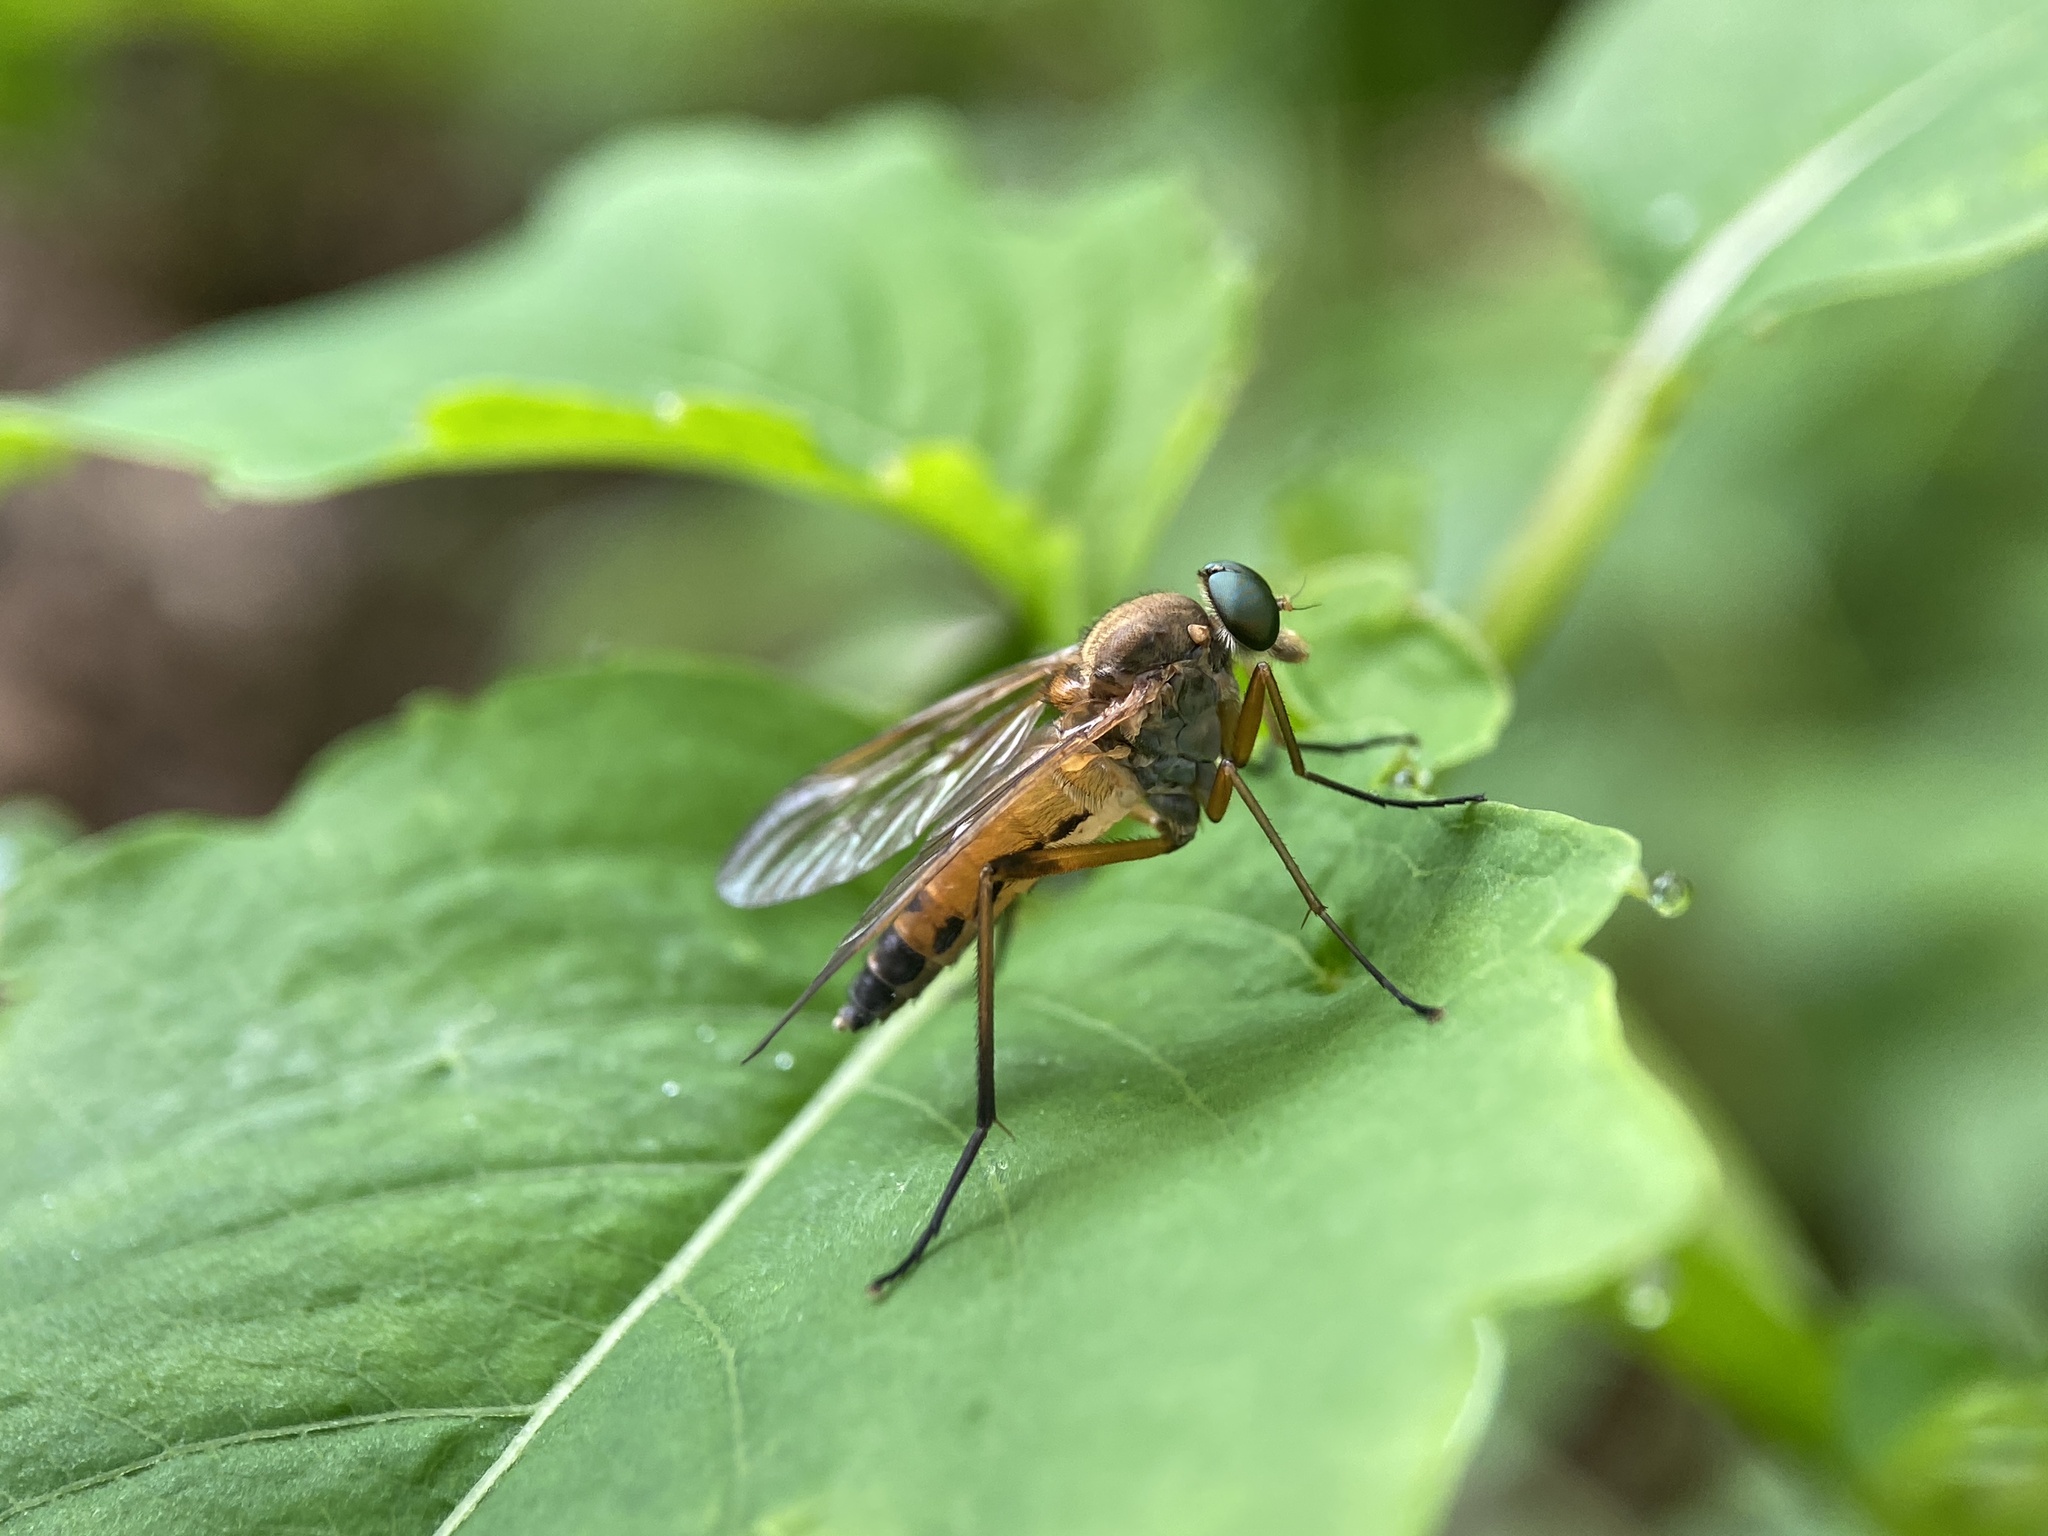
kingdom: Animalia
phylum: Arthropoda
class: Insecta
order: Diptera
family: Rhagionidae
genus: Rhagio
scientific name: Rhagio tringaria
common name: Marsh snipefly
